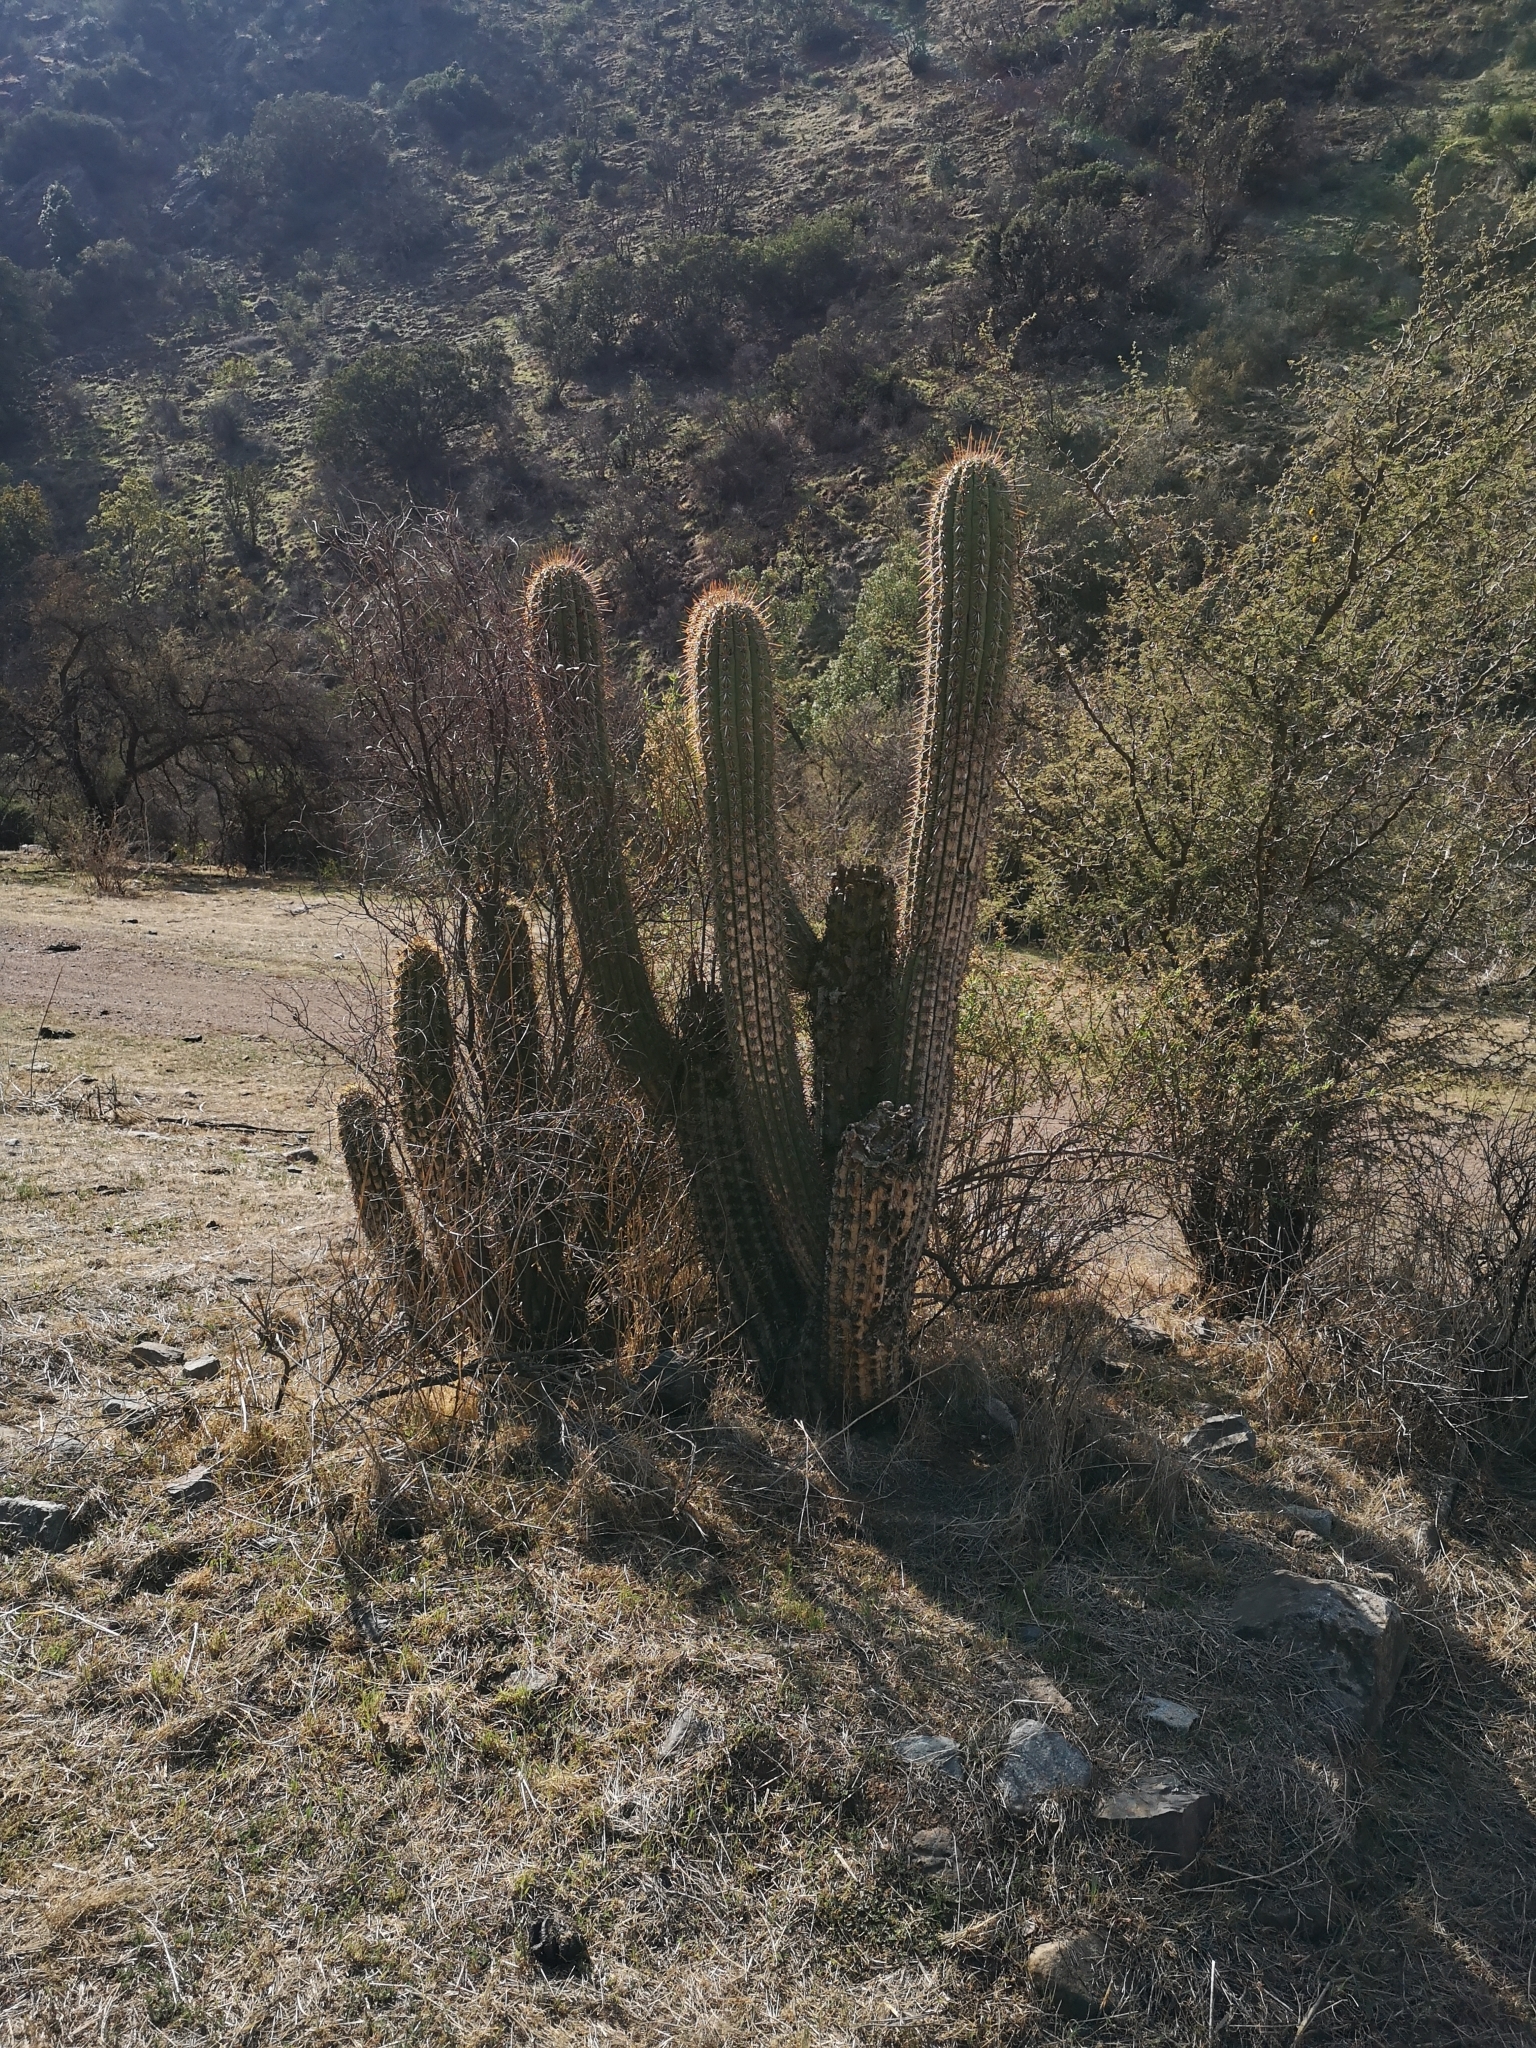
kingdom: Plantae
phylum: Tracheophyta
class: Magnoliopsida
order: Caryophyllales
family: Cactaceae
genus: Leucostele
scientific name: Leucostele chiloensis
